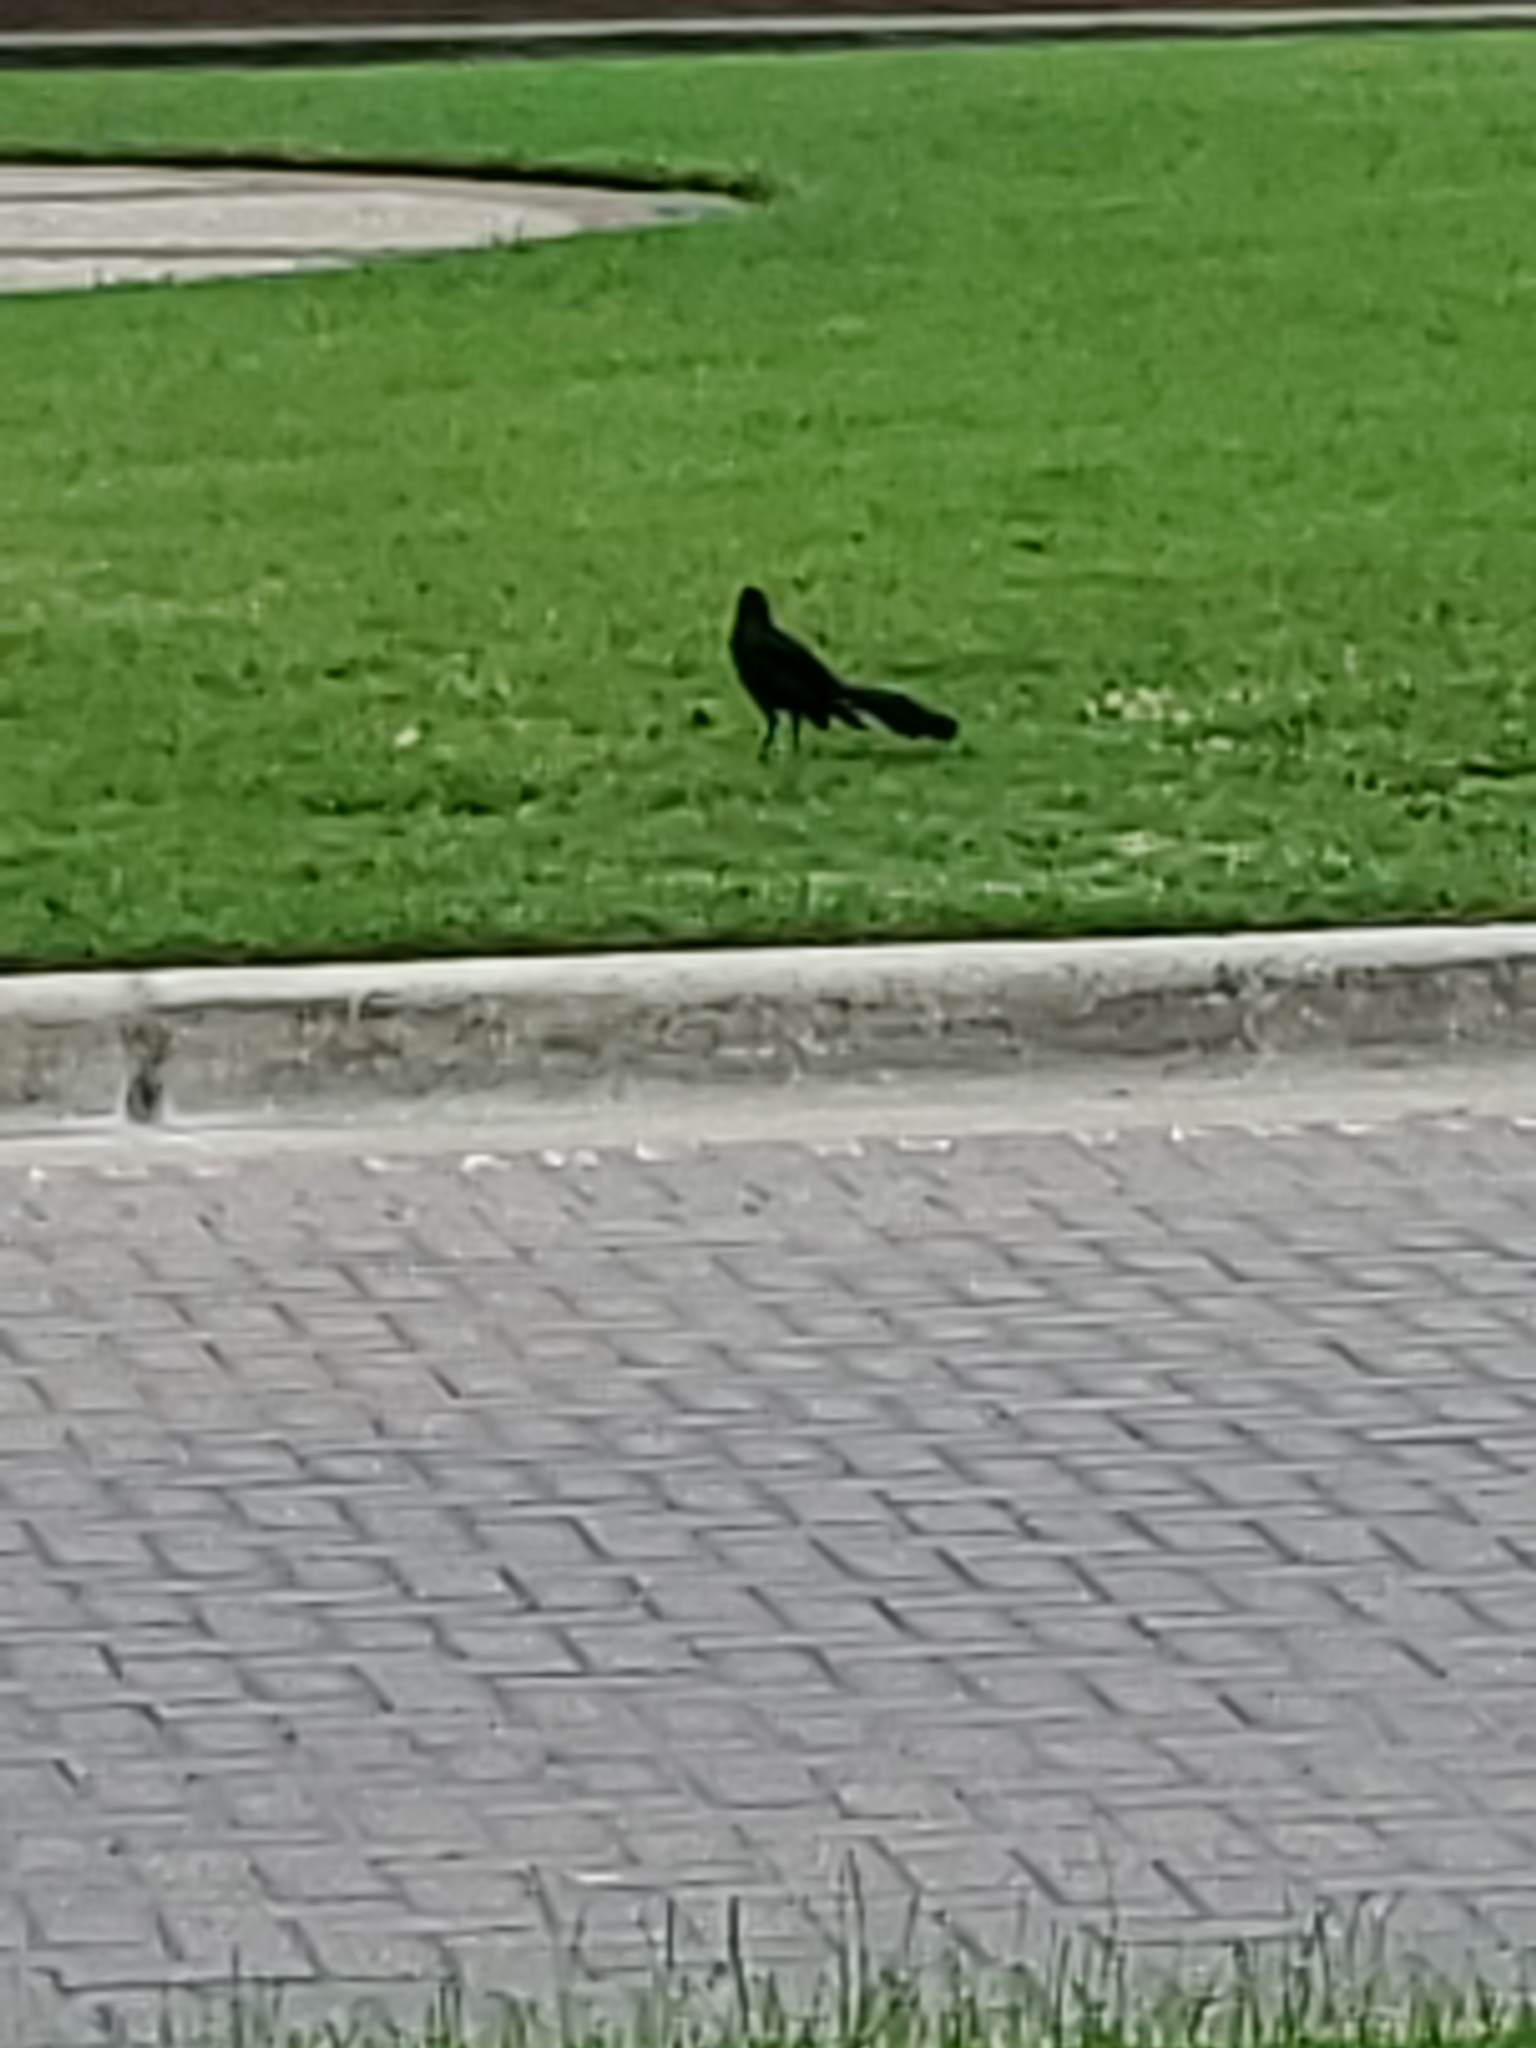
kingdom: Animalia
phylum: Chordata
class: Aves
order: Passeriformes
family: Icteridae
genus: Quiscalus
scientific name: Quiscalus mexicanus
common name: Great-tailed grackle
